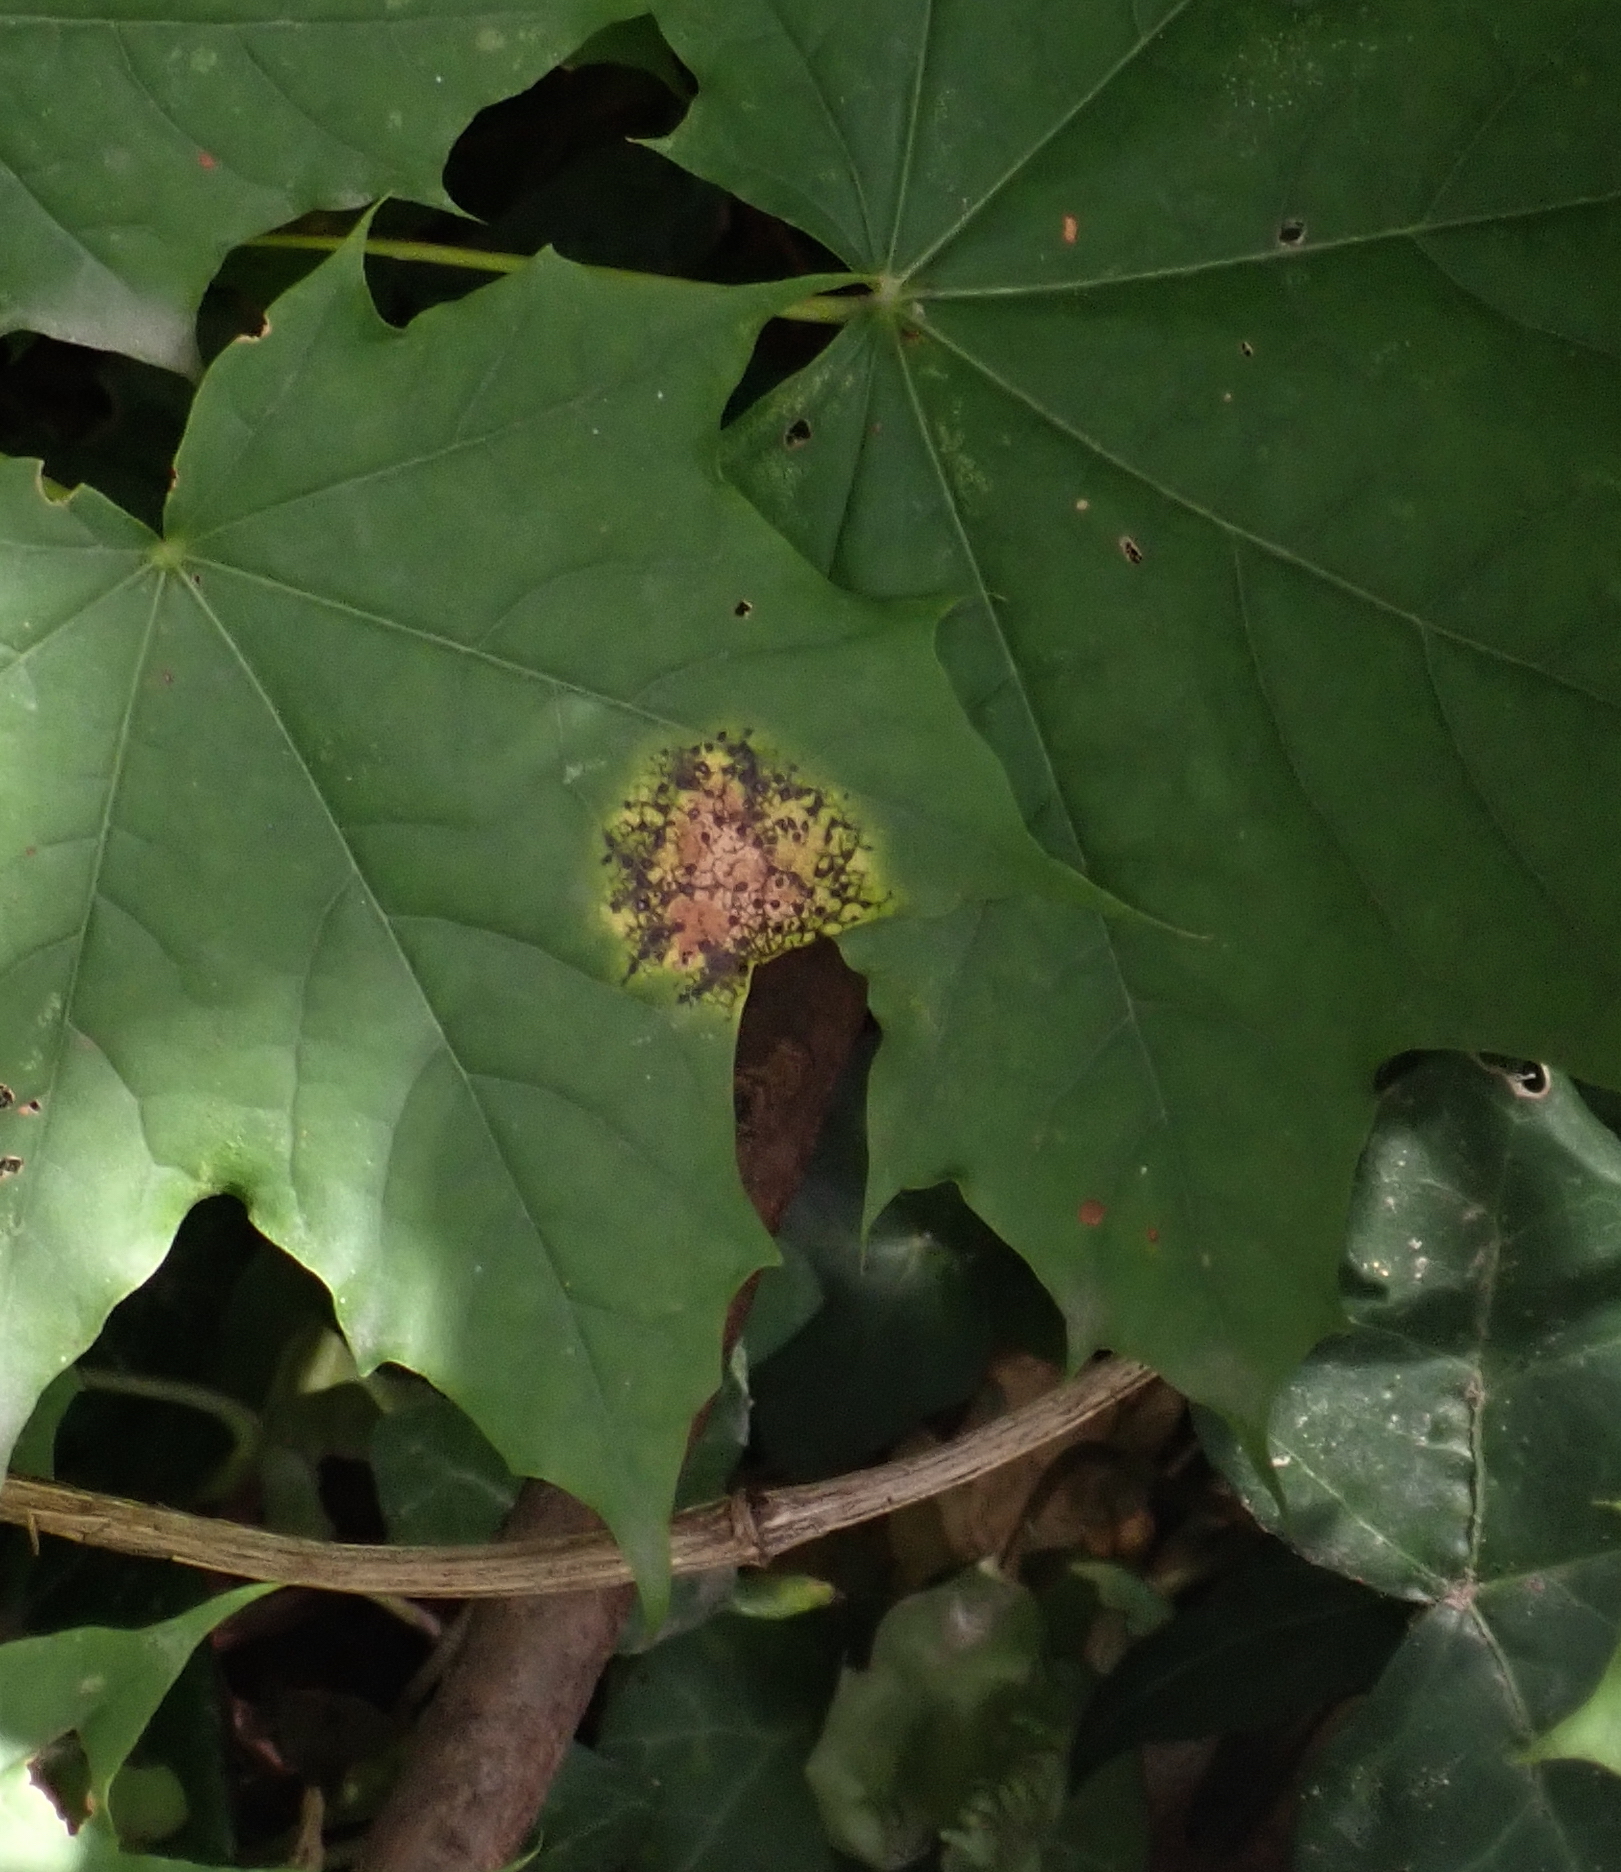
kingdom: Fungi
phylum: Ascomycota
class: Leotiomycetes
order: Rhytismatales
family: Rhytismataceae
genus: Rhytisma
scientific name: Rhytisma acerinum
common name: European tar spot
